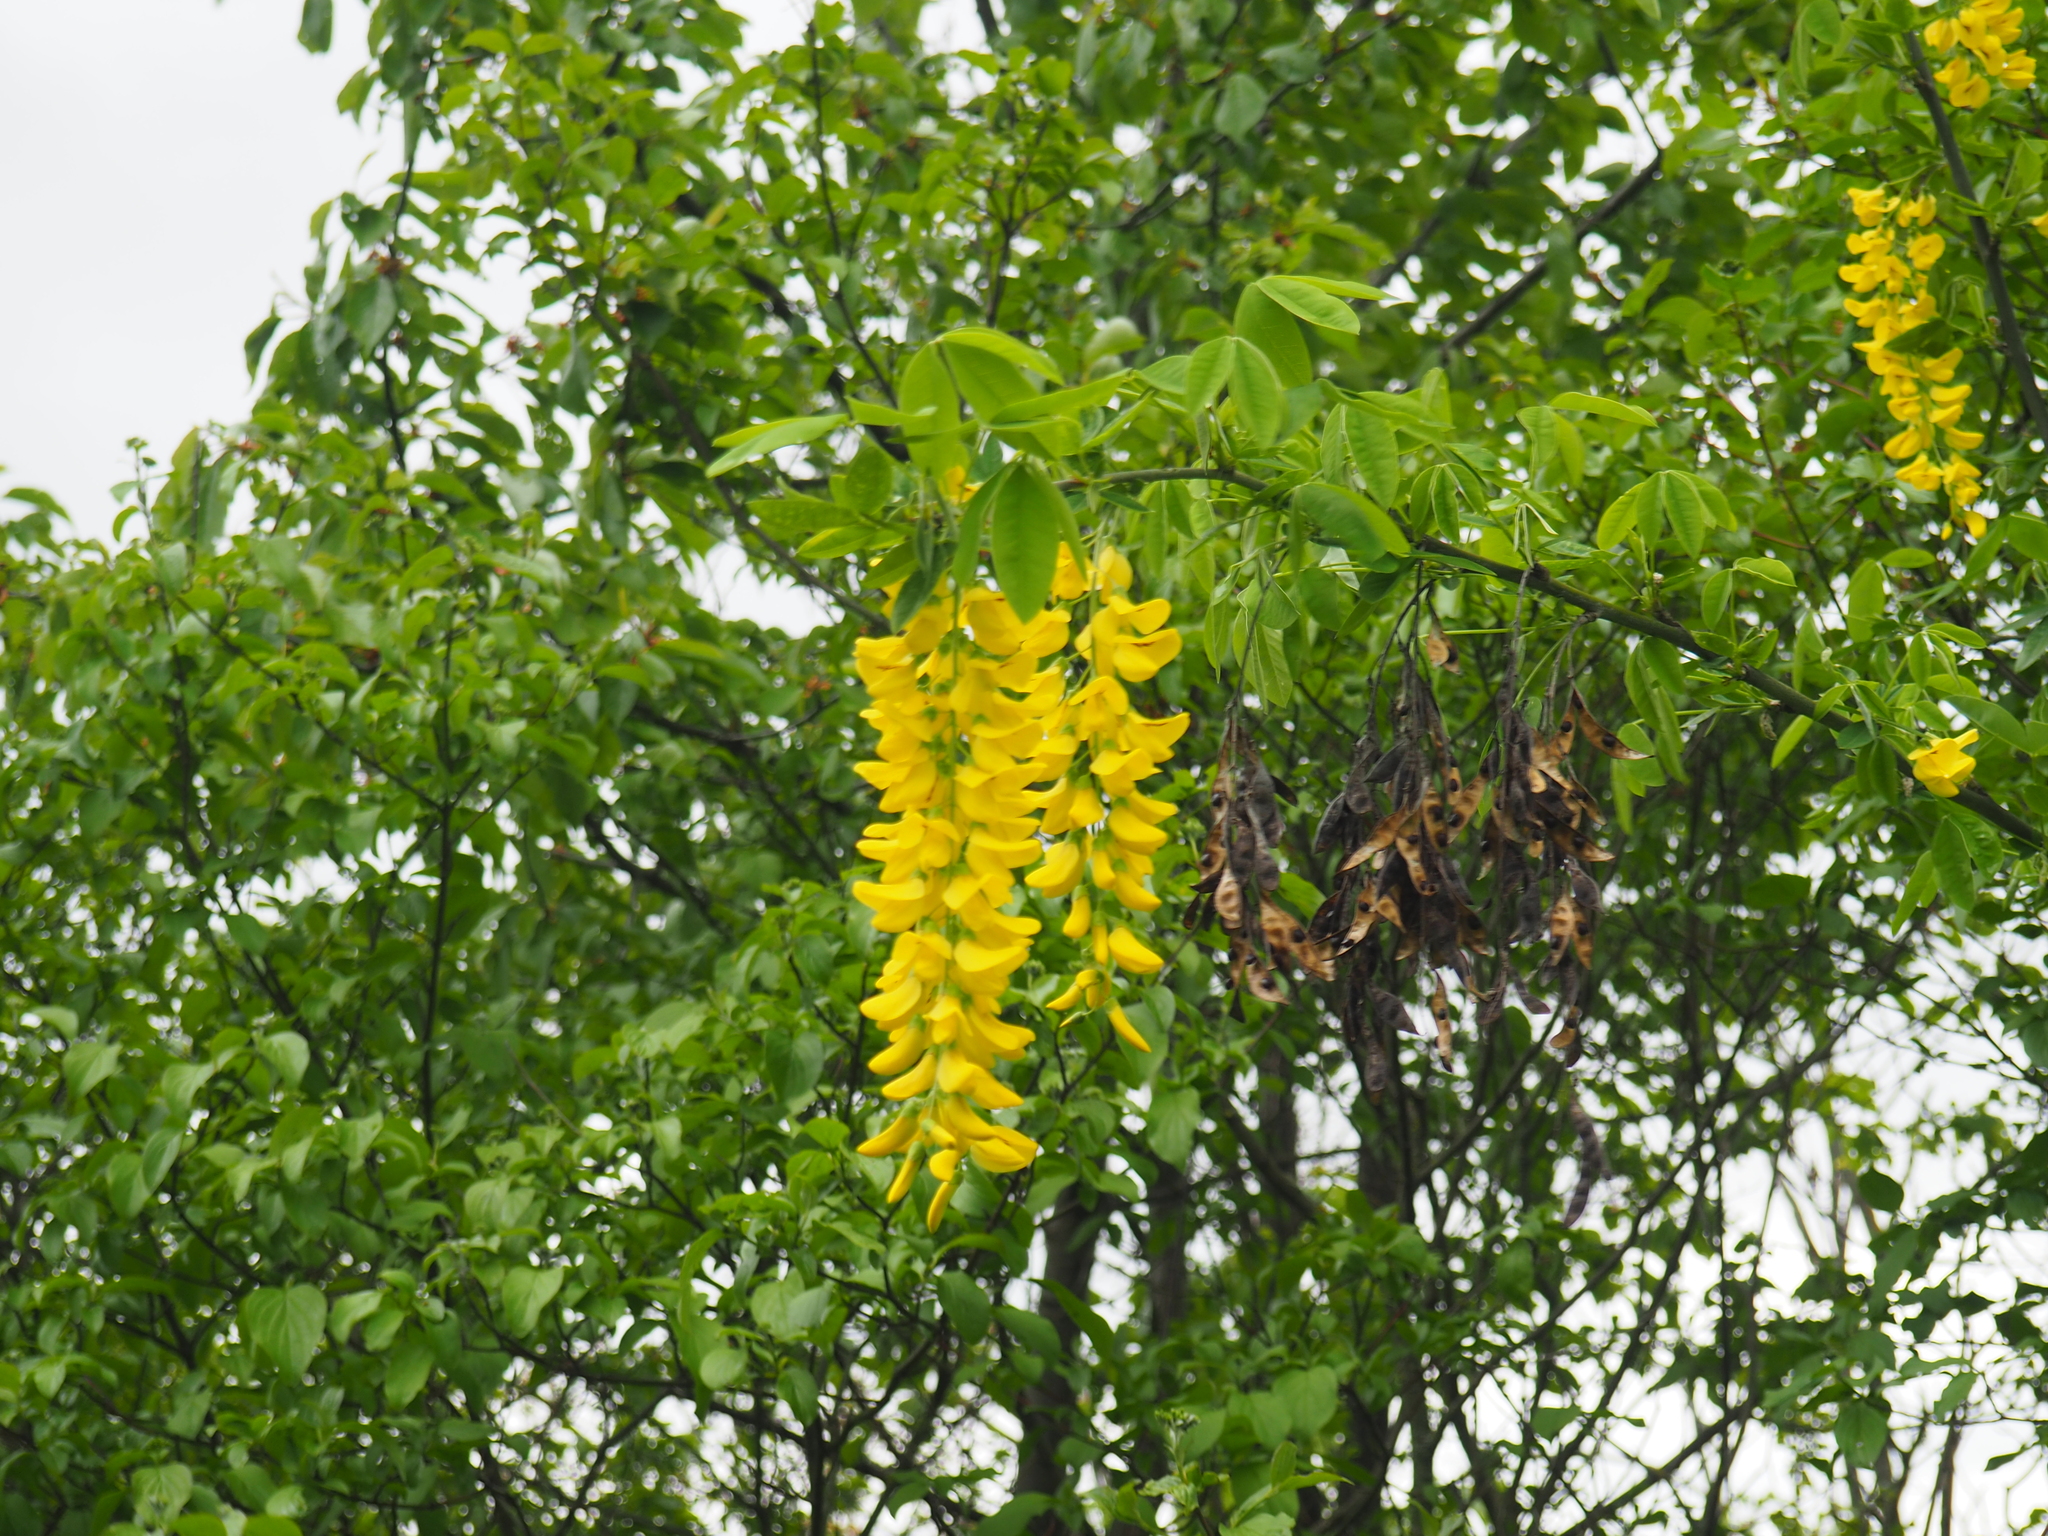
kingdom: Plantae
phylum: Tracheophyta
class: Magnoliopsida
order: Fabales
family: Fabaceae
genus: Laburnum
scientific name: Laburnum anagyroides
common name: Laburnum
